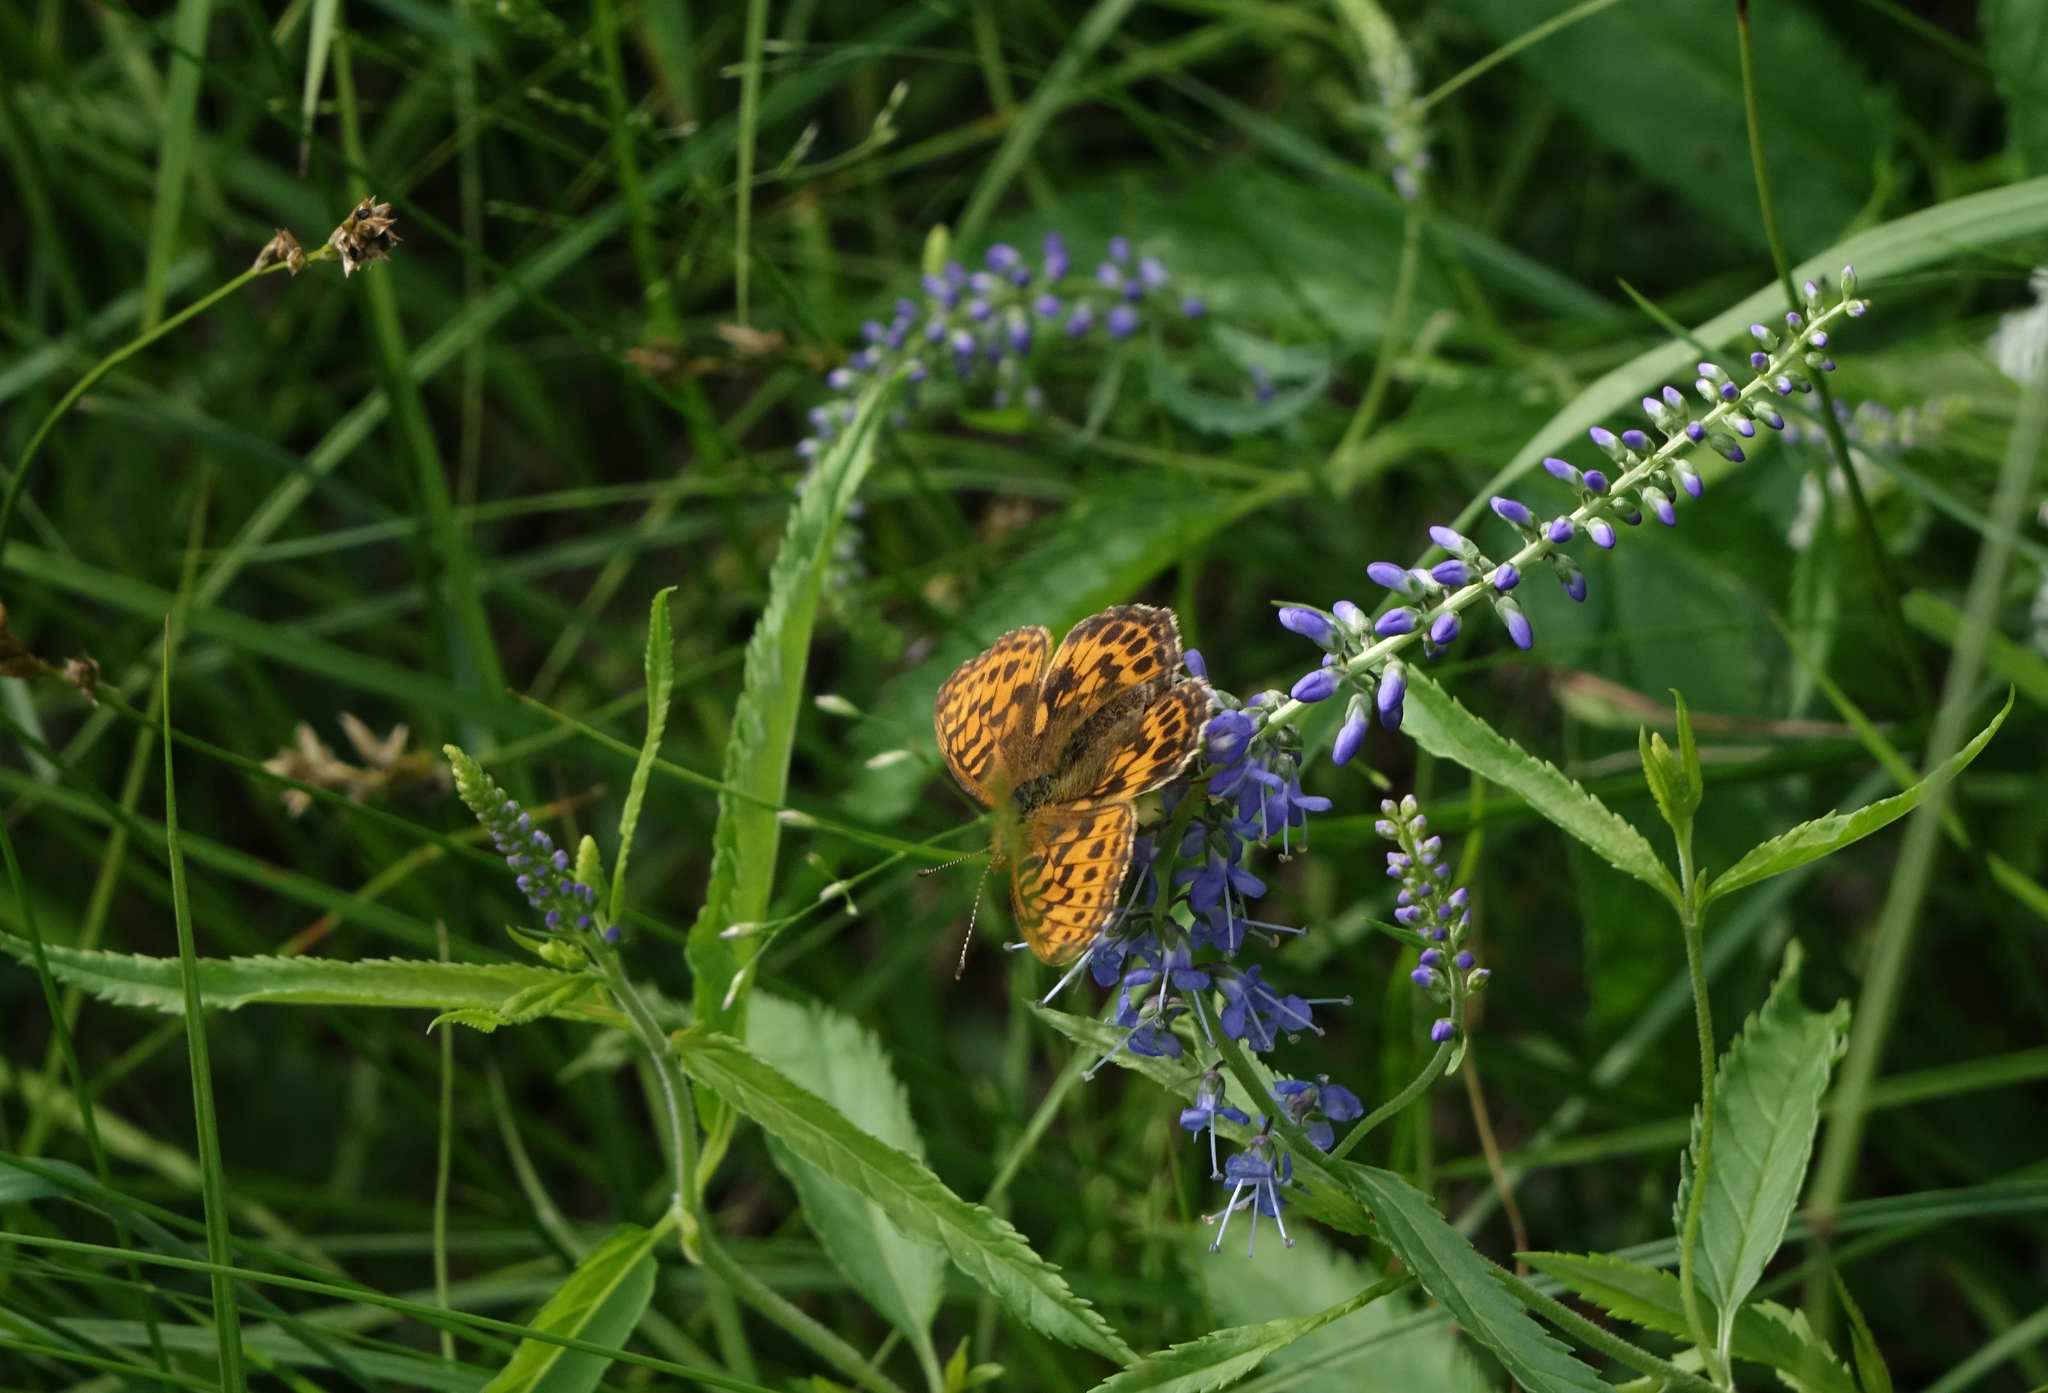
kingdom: Animalia
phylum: Arthropoda
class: Insecta
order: Lepidoptera
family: Nymphalidae
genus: Boloria
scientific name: Boloria thore
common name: Thor's fritillary
